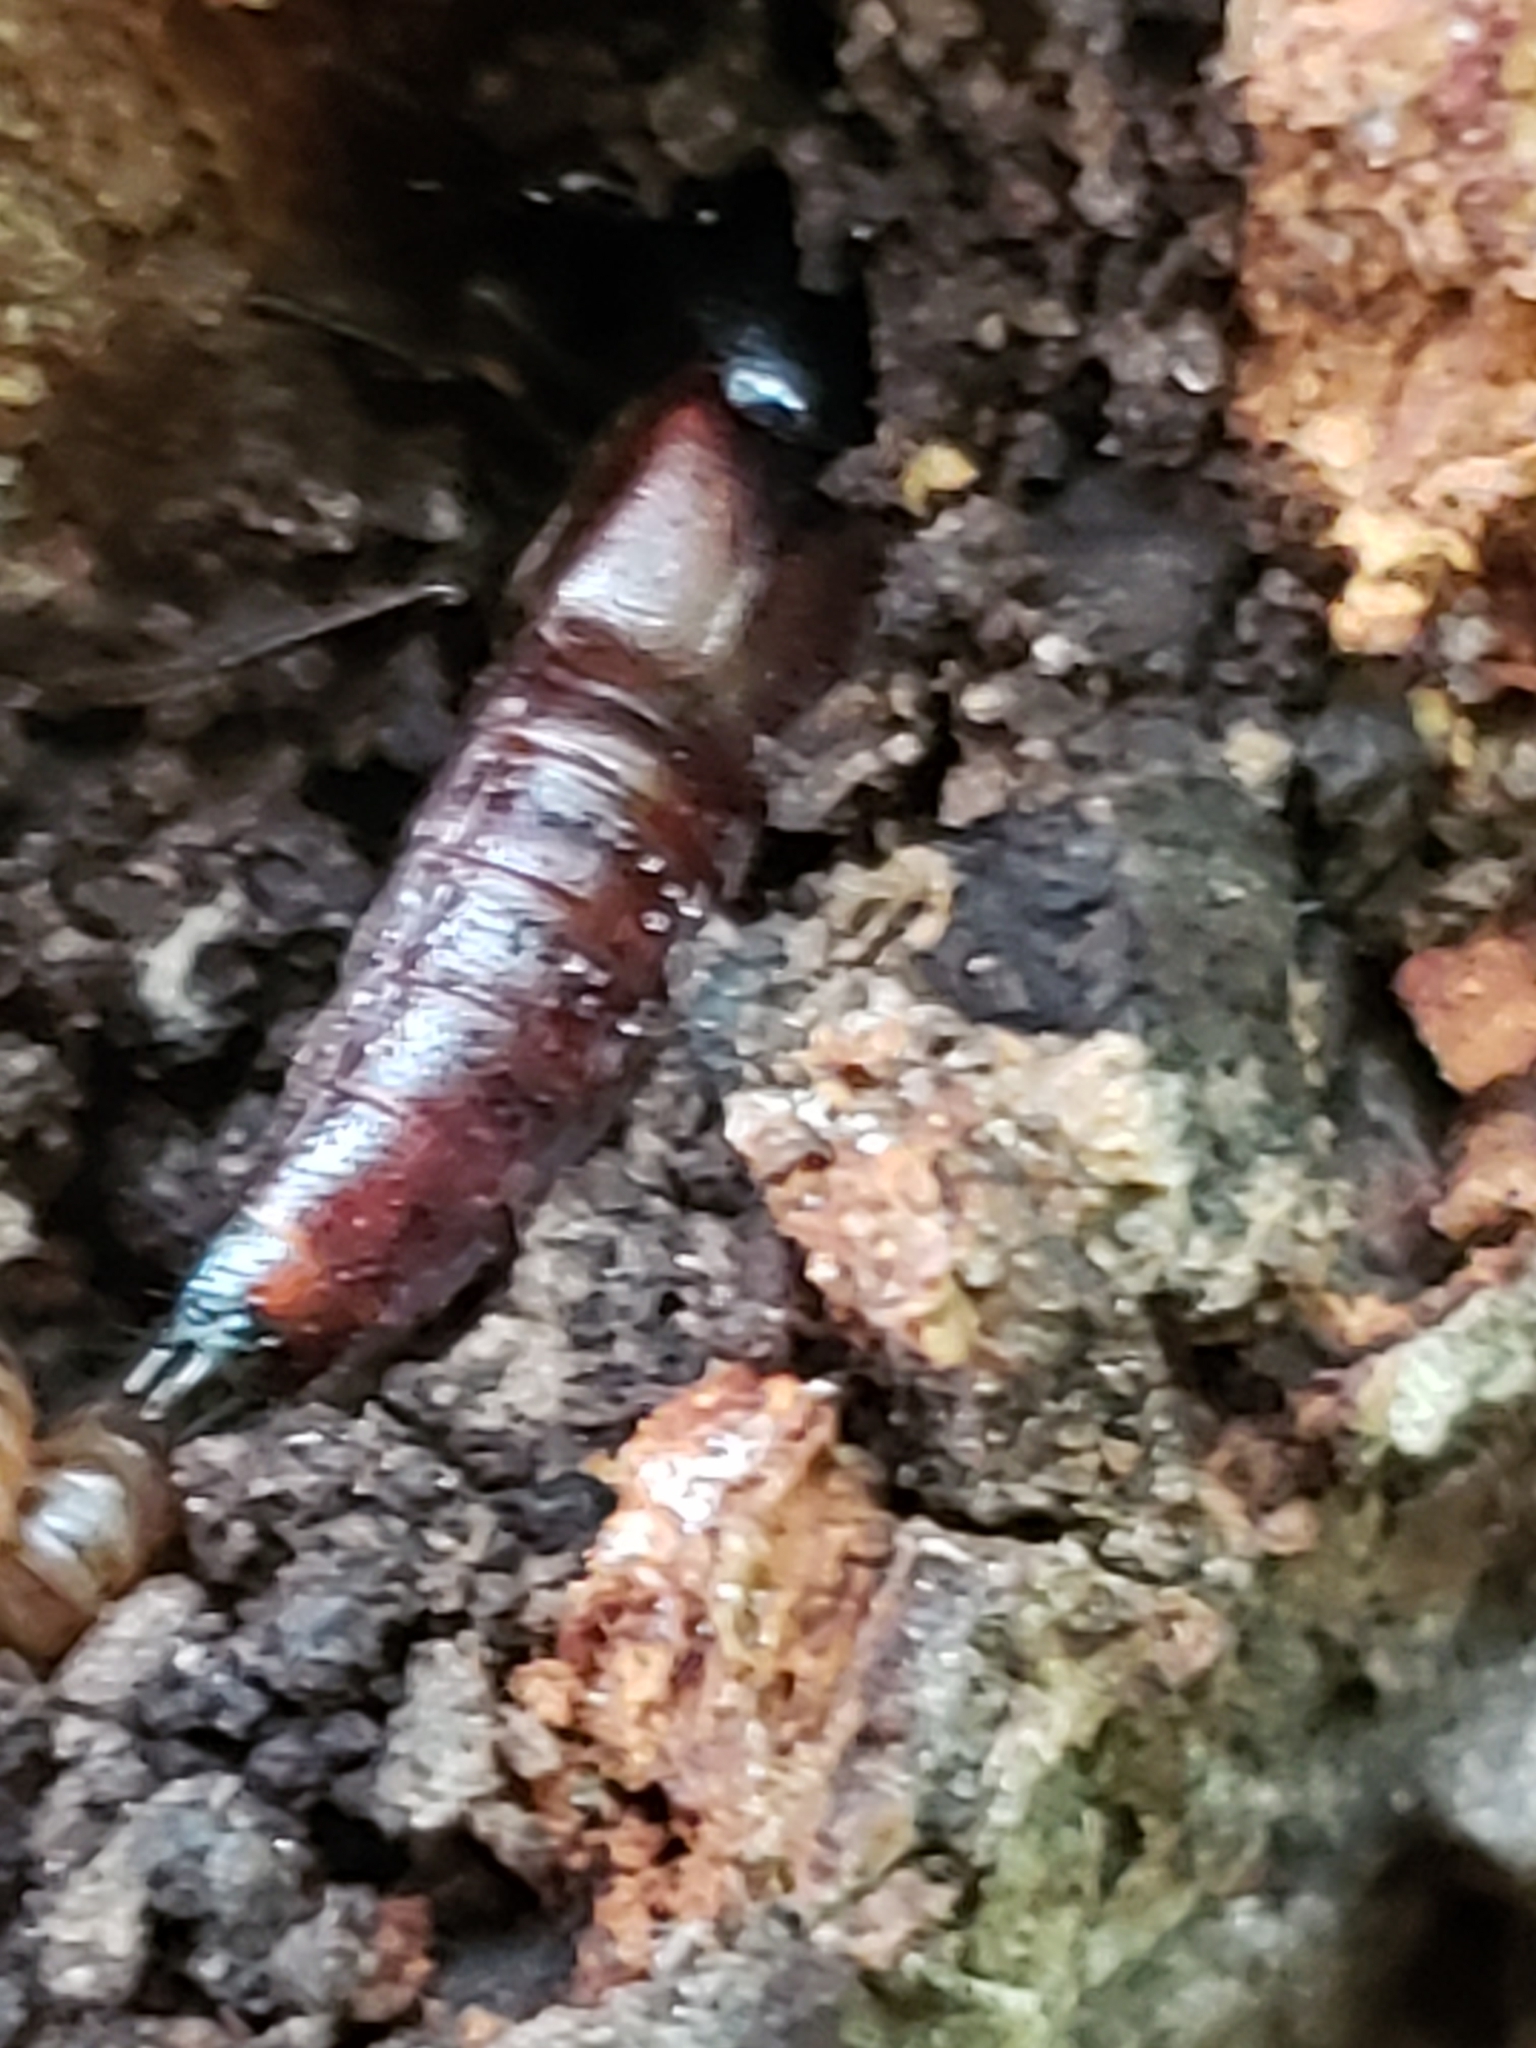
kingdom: Animalia
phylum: Arthropoda
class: Insecta
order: Coleoptera
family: Staphylinidae
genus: Hesperus
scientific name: Hesperus baltimorensis
